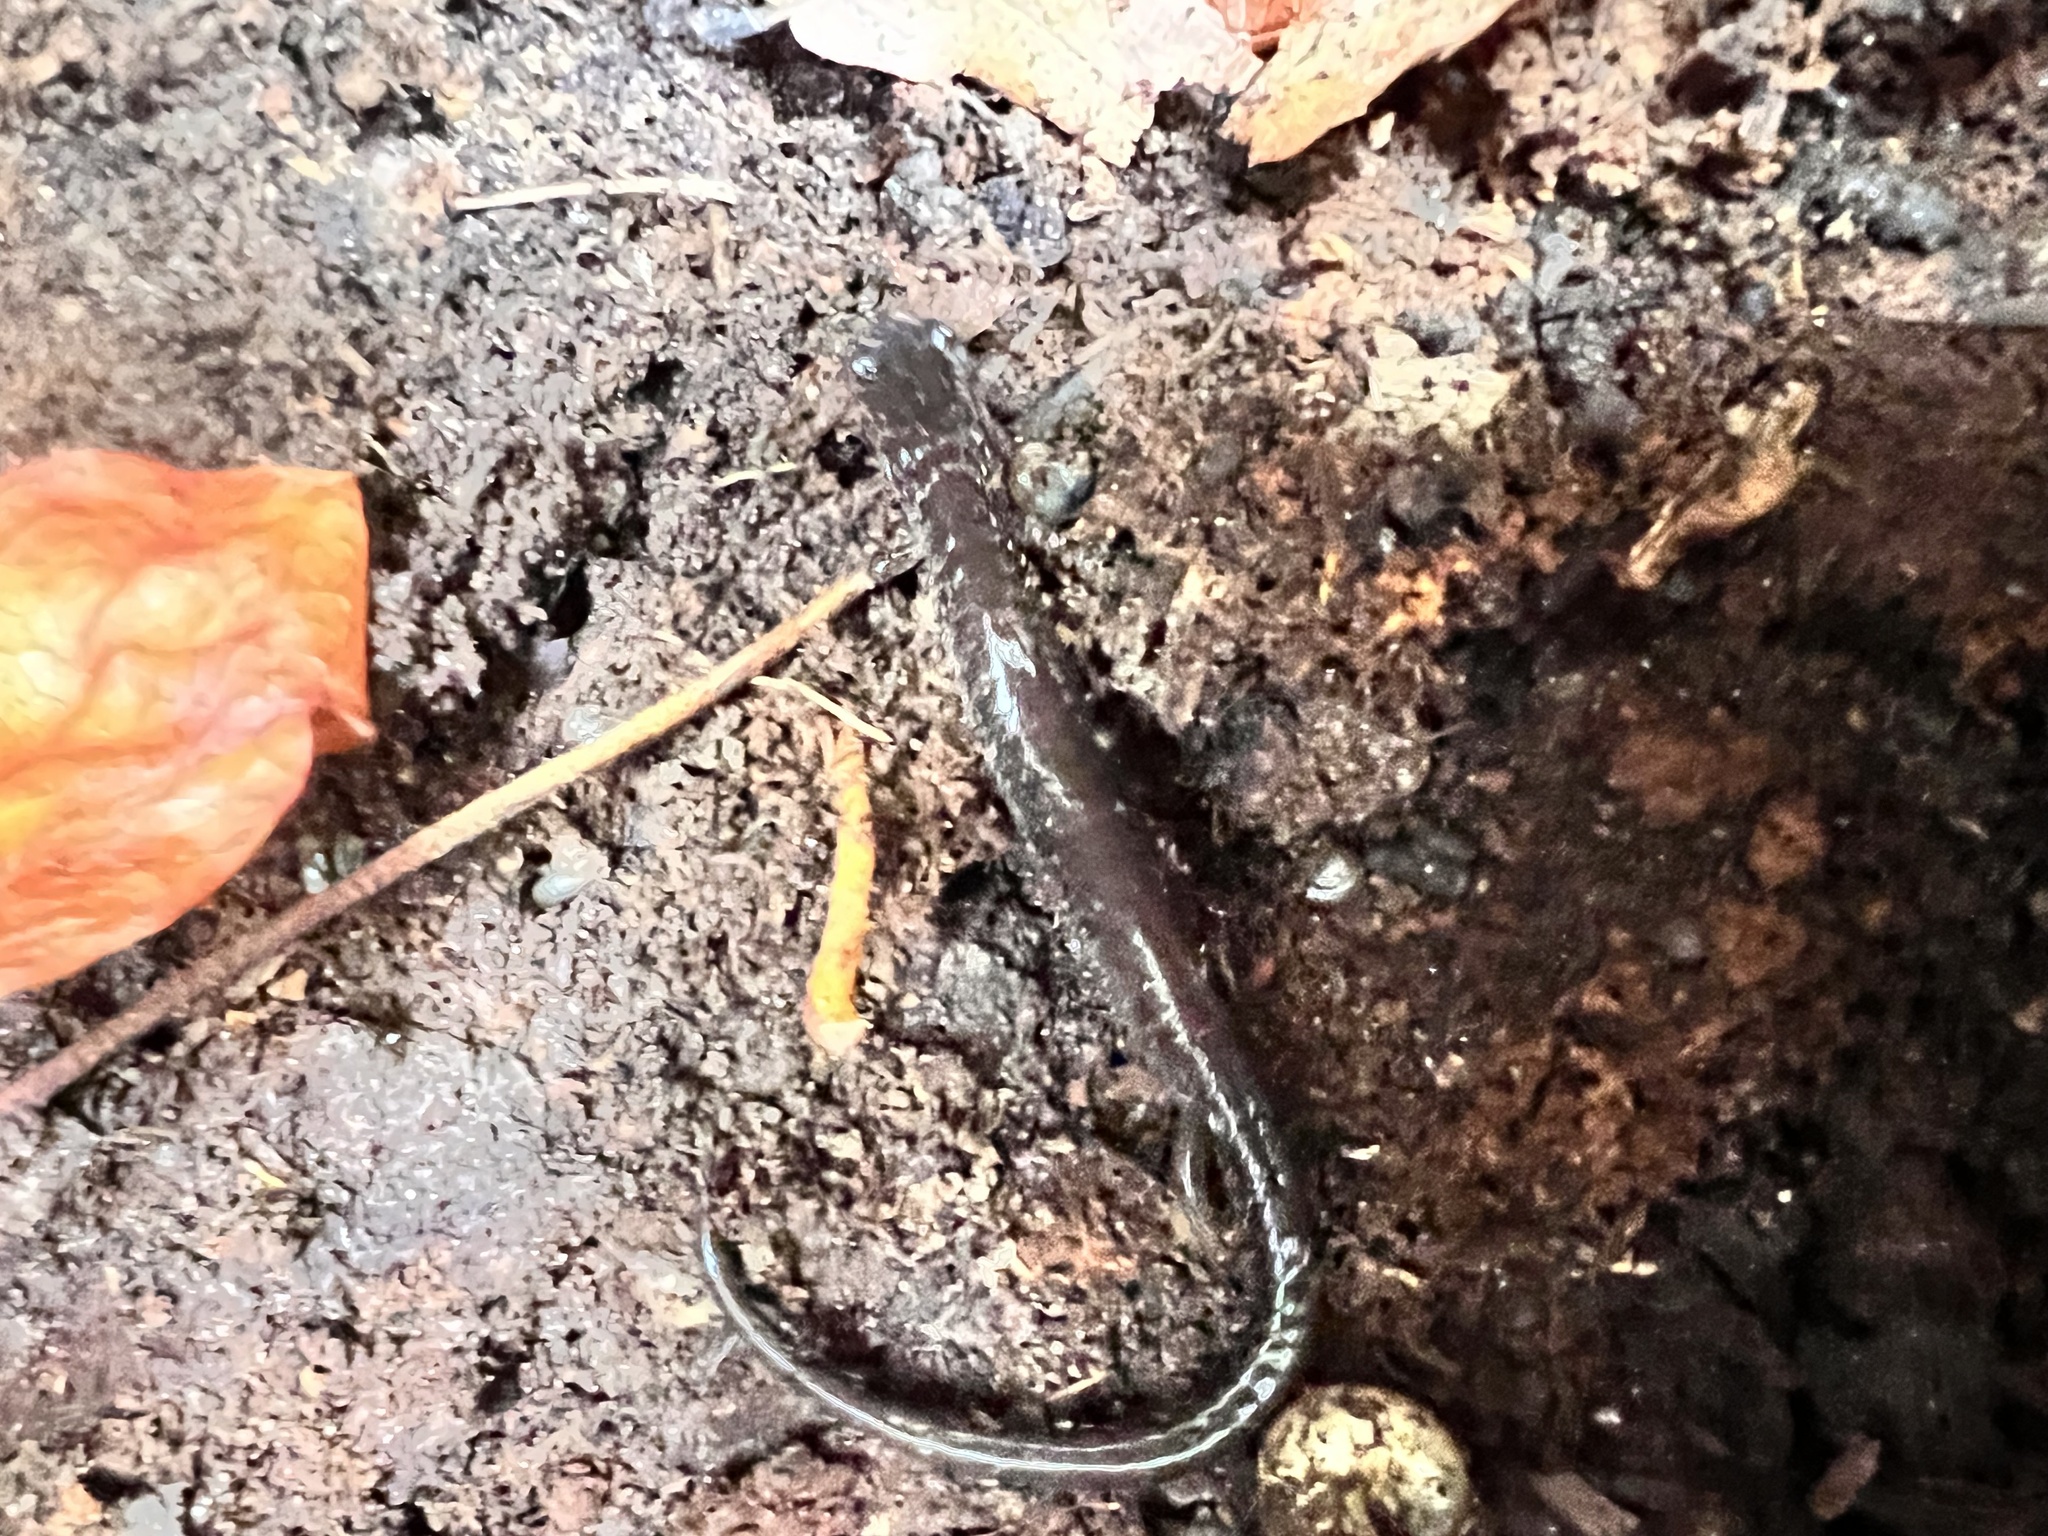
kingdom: Animalia
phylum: Chordata
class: Amphibia
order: Caudata
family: Plethodontidae
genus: Plethodon
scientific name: Plethodon cinereus
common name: Redback salamander
